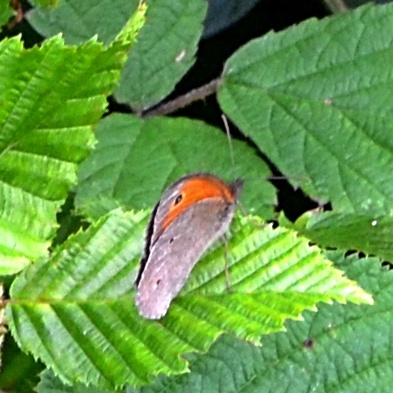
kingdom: Animalia
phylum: Arthropoda
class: Insecta
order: Lepidoptera
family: Nymphalidae
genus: Maniola
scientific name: Maniola jurtina
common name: Meadow brown
